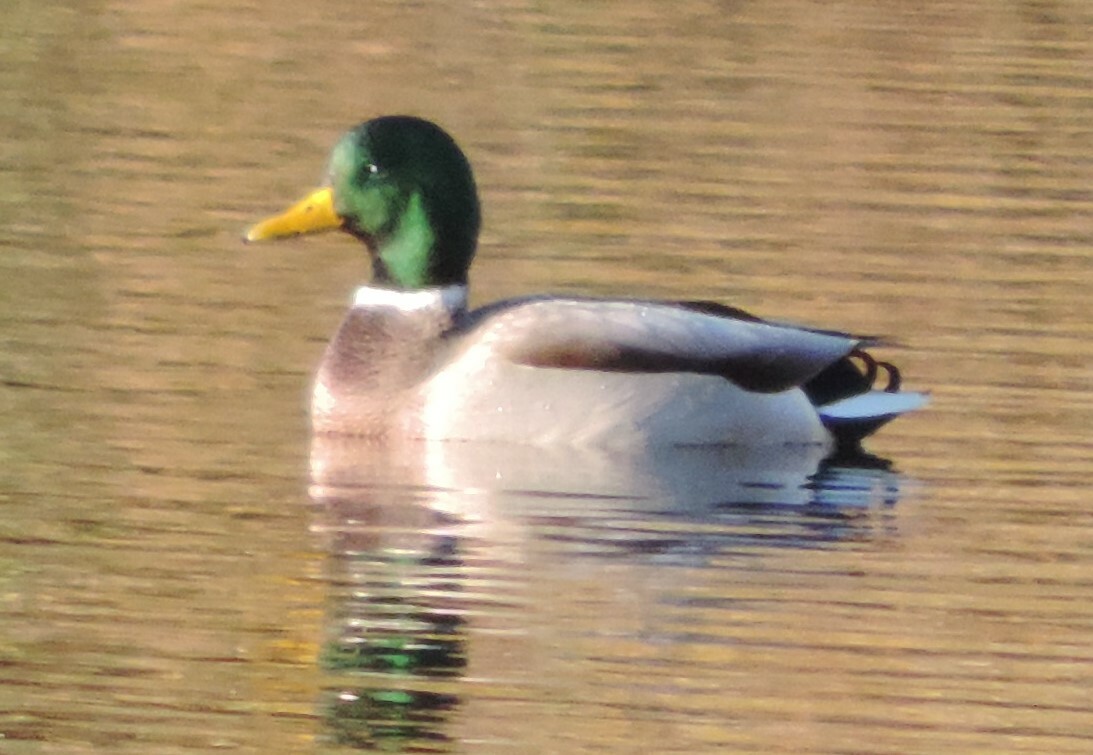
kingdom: Animalia
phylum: Chordata
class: Aves
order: Anseriformes
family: Anatidae
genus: Anas
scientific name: Anas platyrhynchos
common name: Mallard
